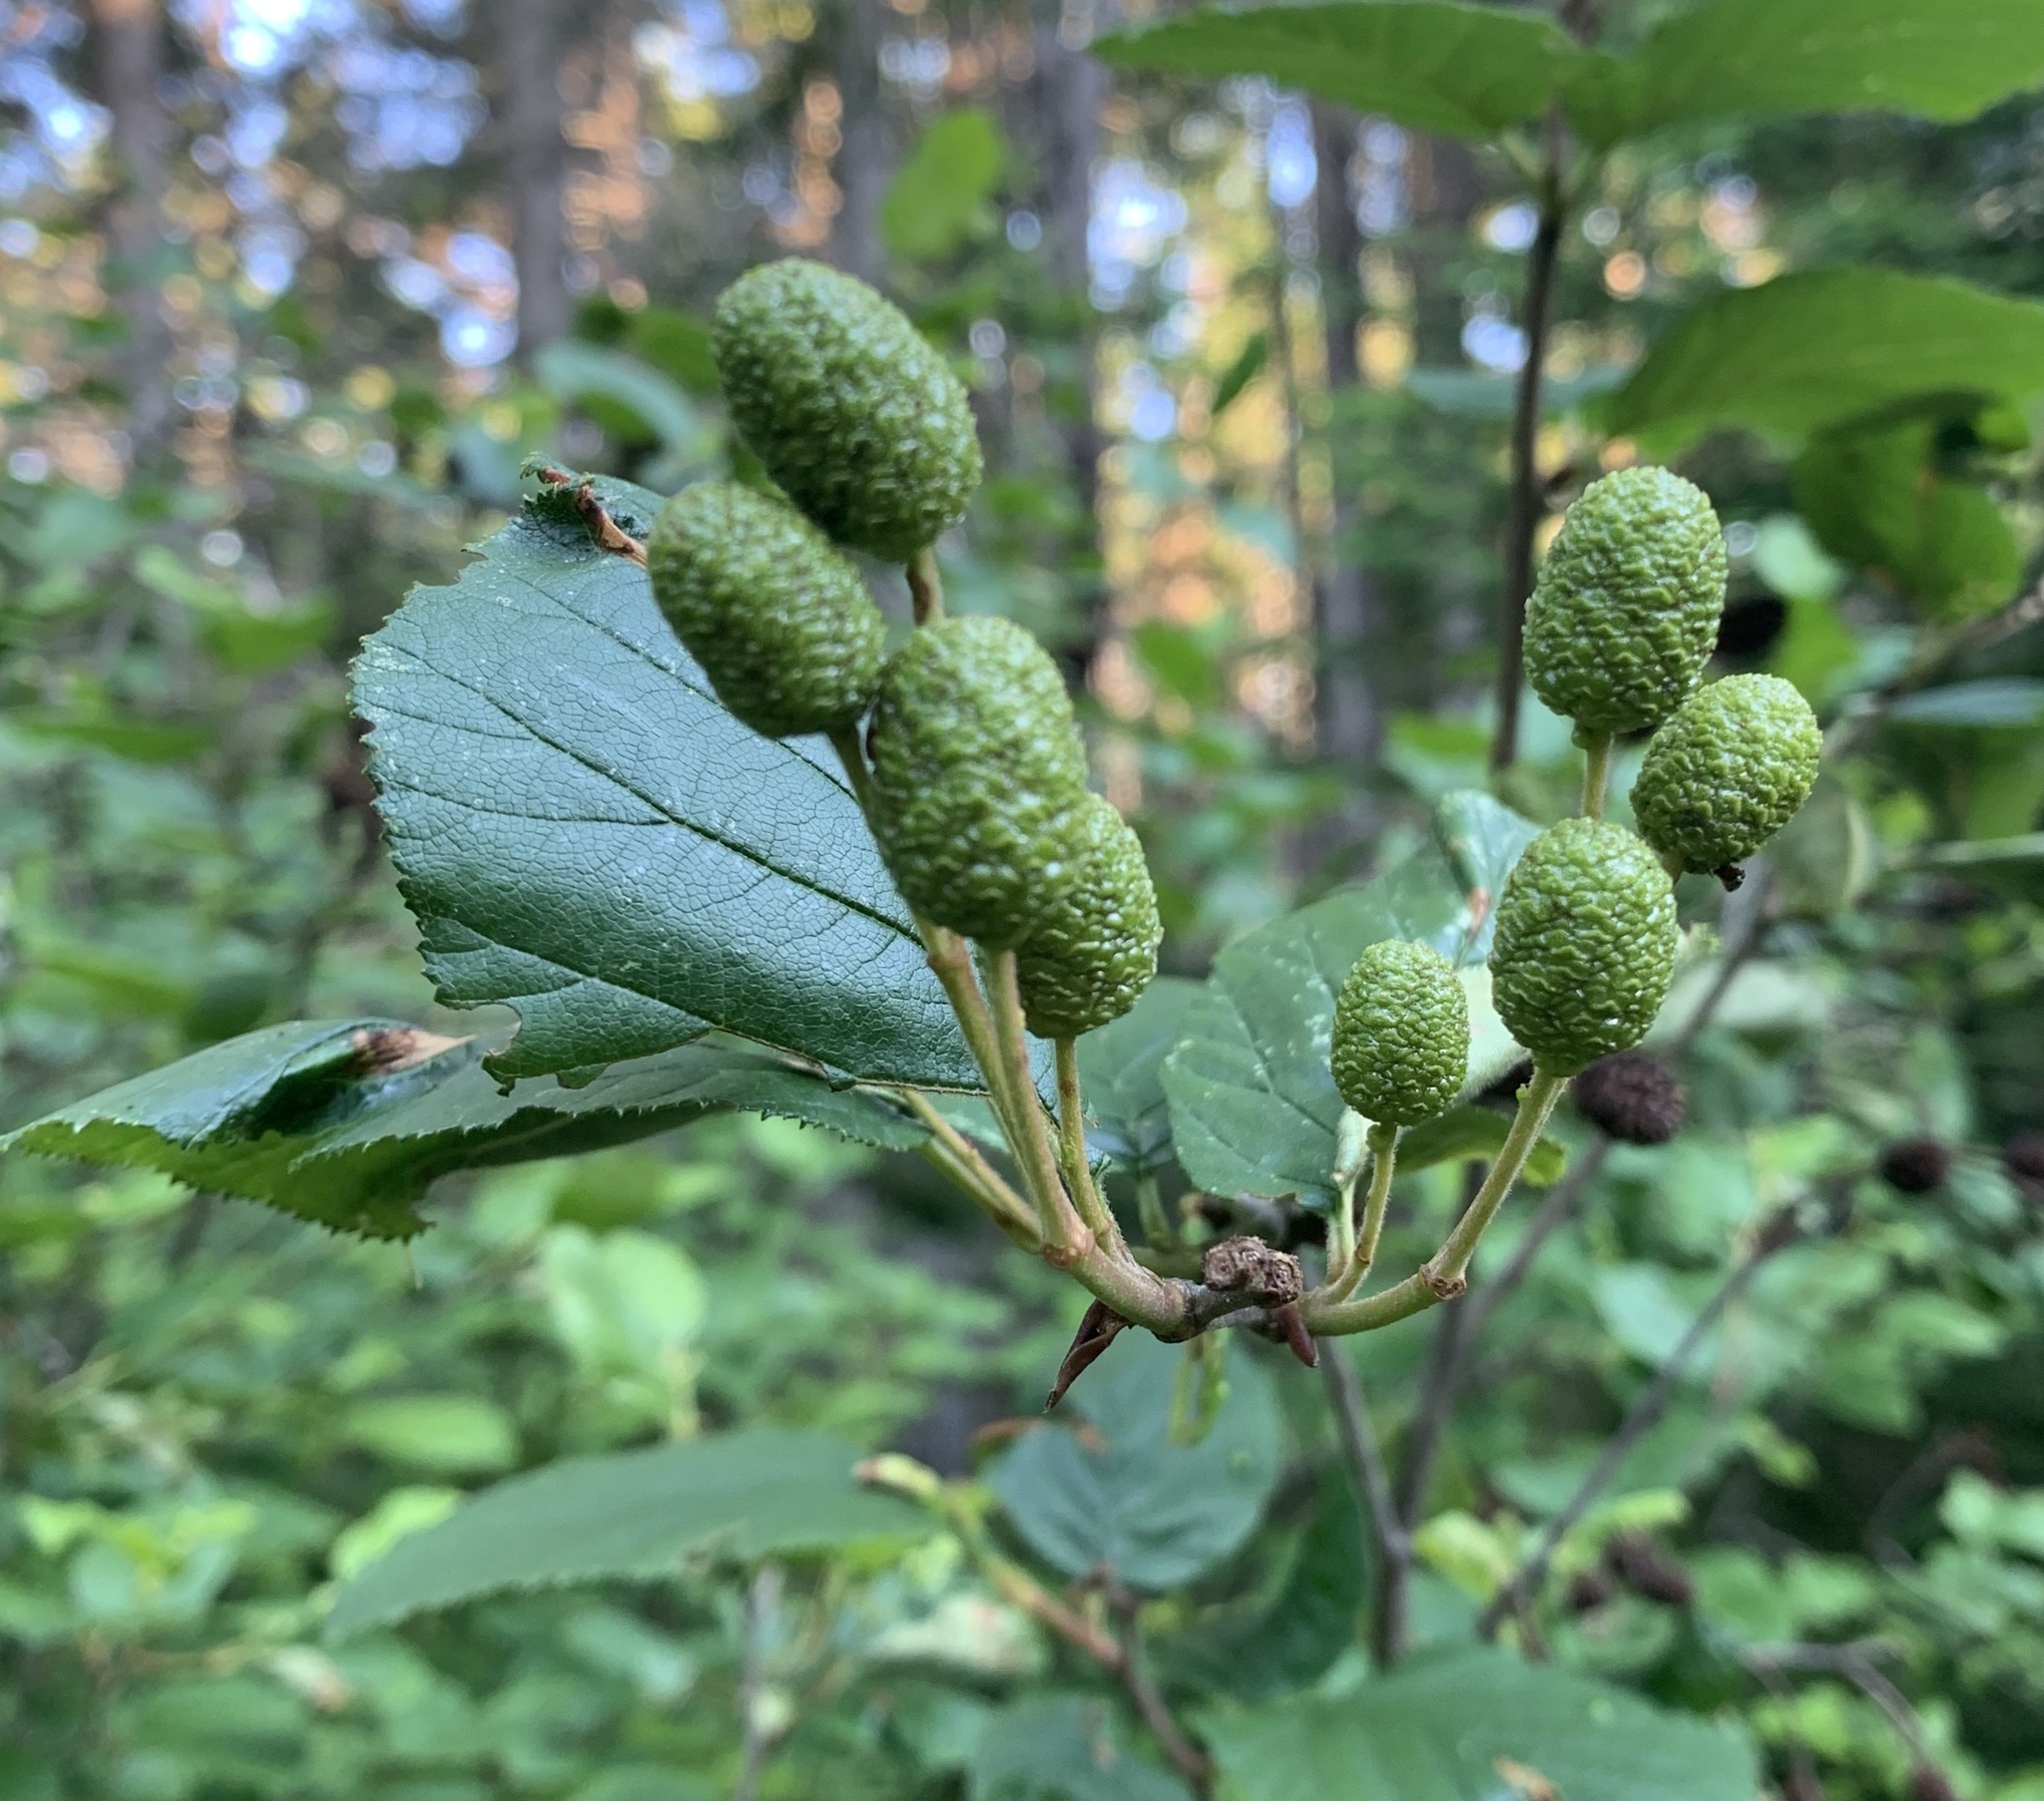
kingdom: Plantae
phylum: Tracheophyta
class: Magnoliopsida
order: Fagales
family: Betulaceae
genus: Alnus
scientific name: Alnus alnobetula
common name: Green alder
